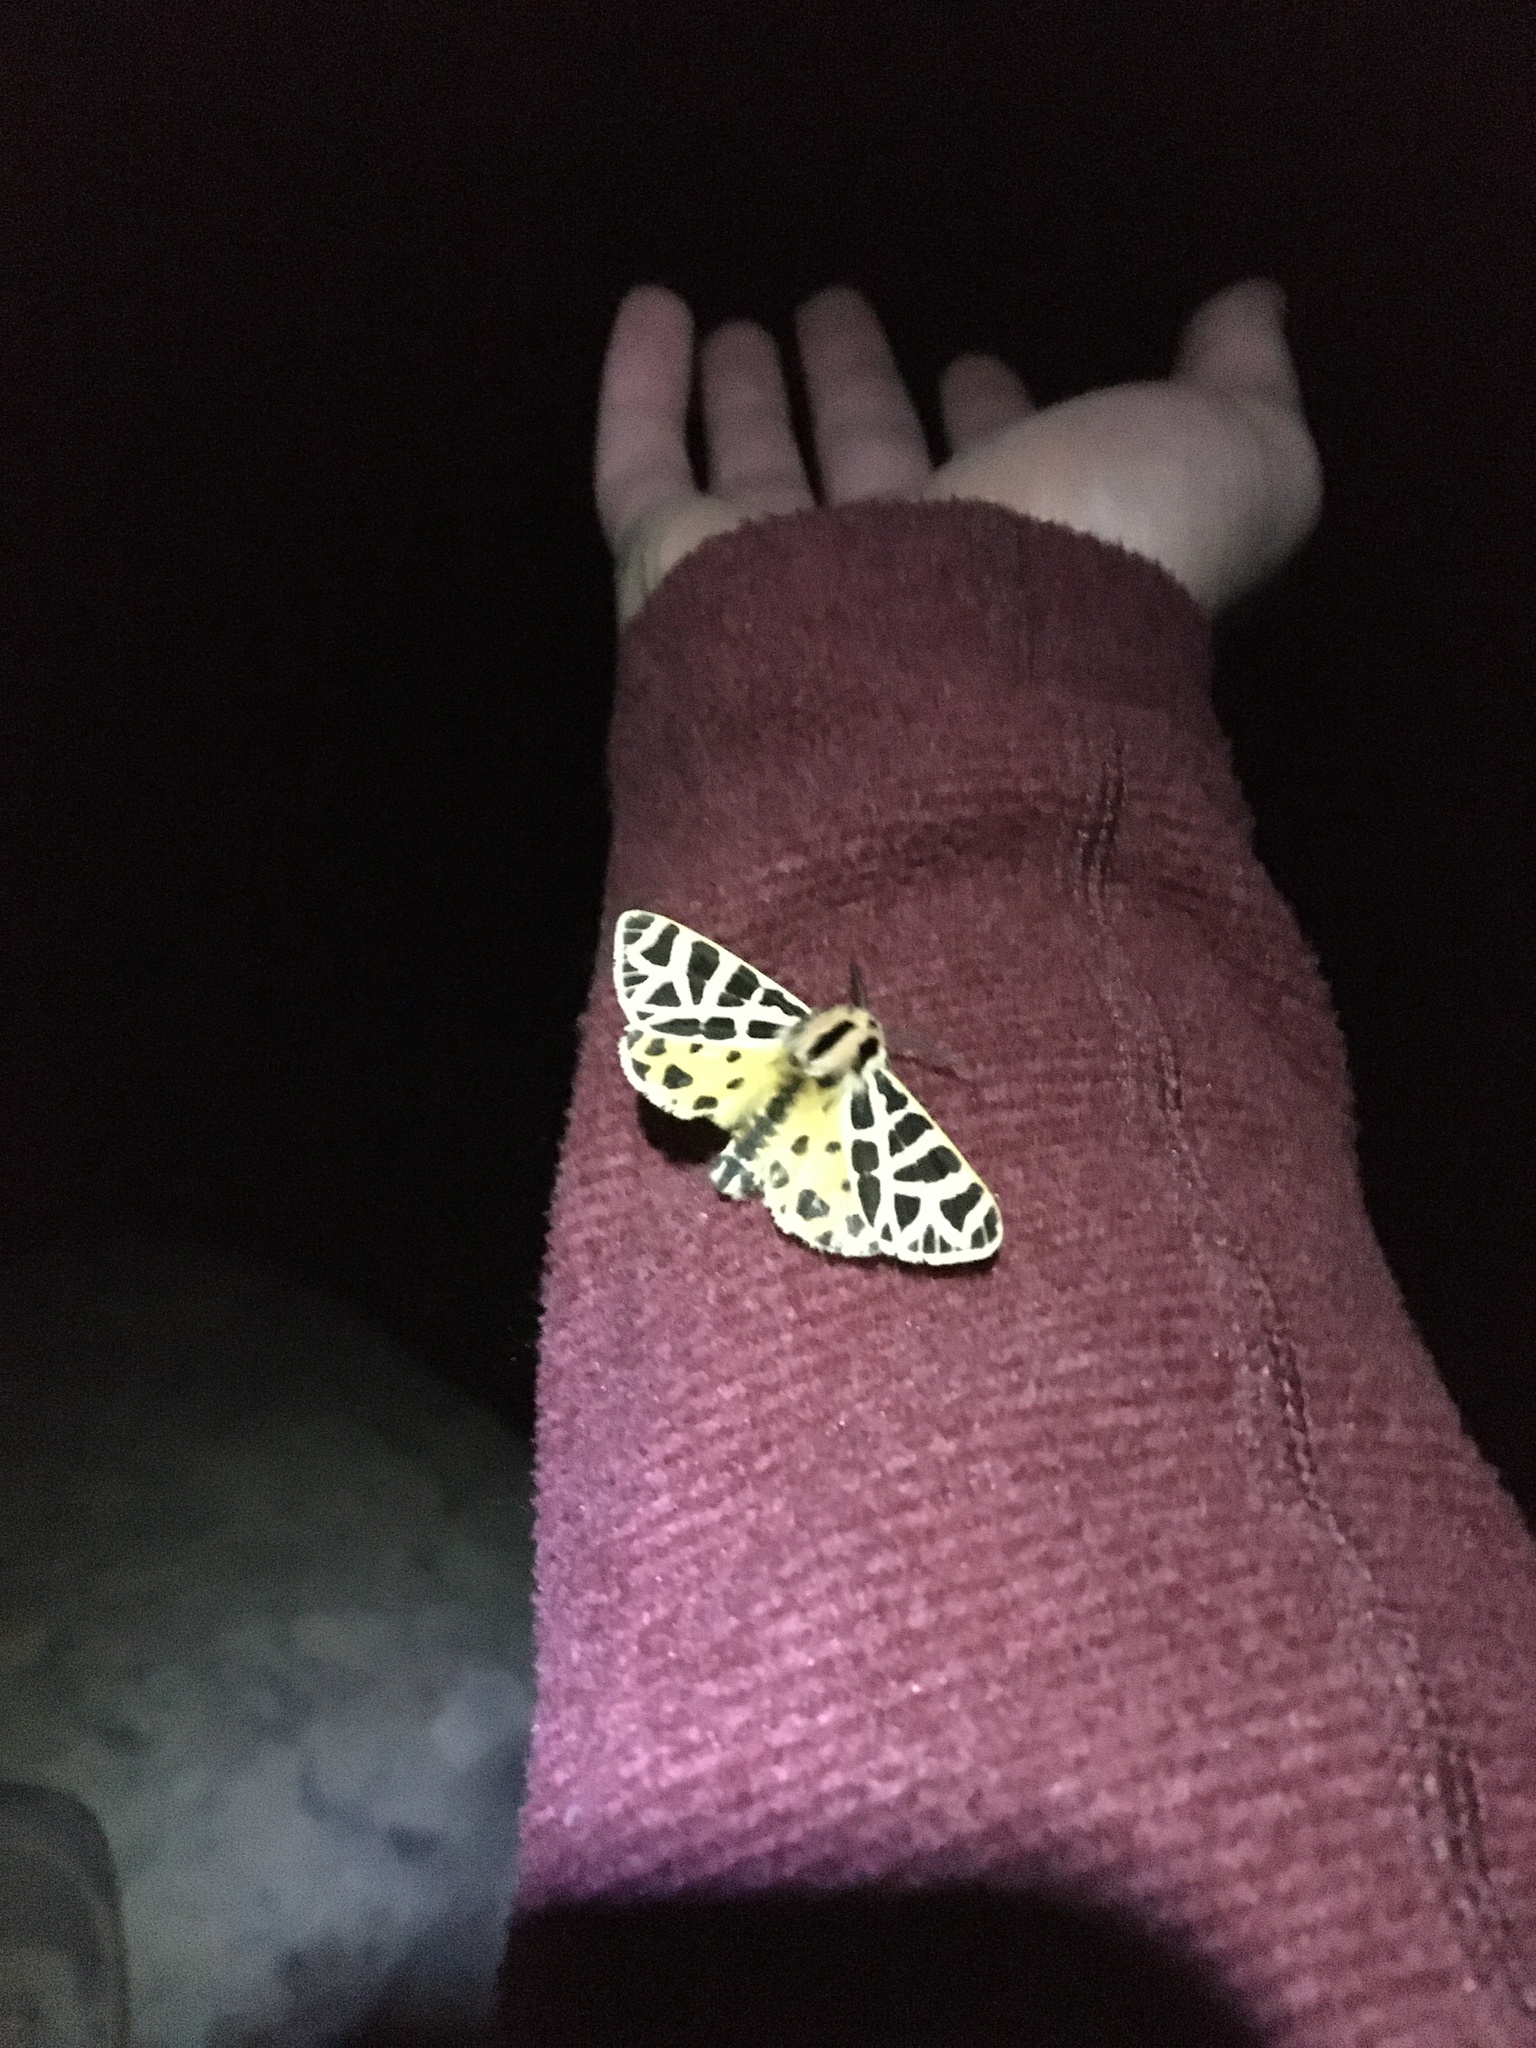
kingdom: Animalia
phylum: Arthropoda
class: Insecta
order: Lepidoptera
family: Erebidae
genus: Apantesis
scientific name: Apantesis
